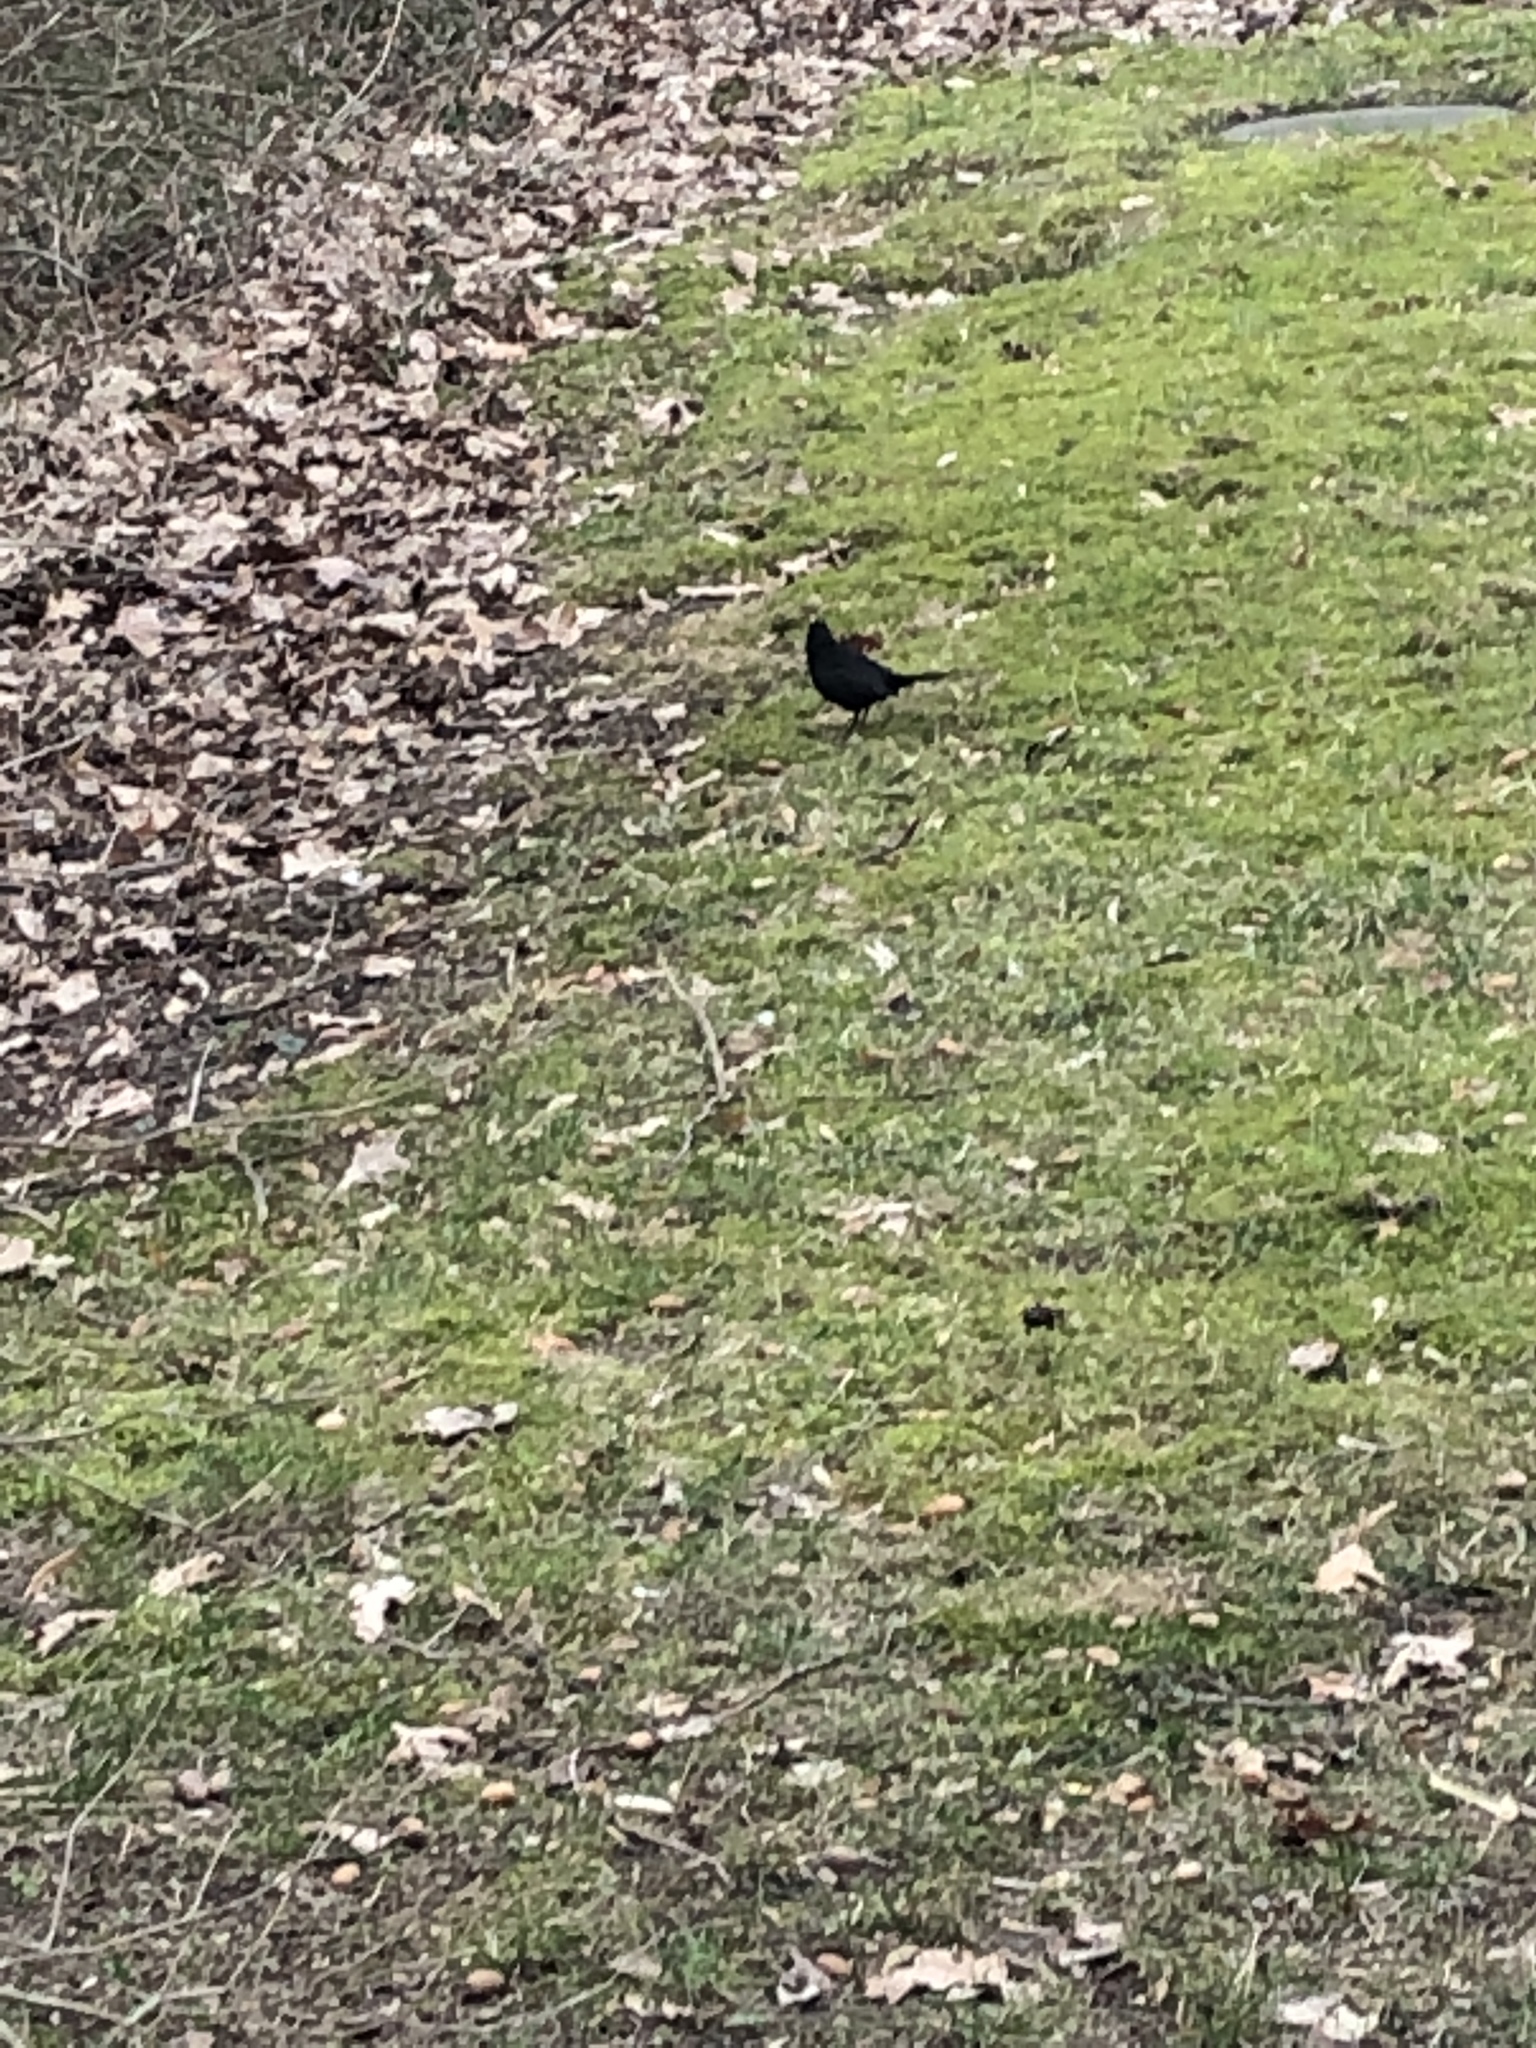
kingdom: Animalia
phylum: Chordata
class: Aves
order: Passeriformes
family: Turdidae
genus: Turdus
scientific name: Turdus merula
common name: Common blackbird
